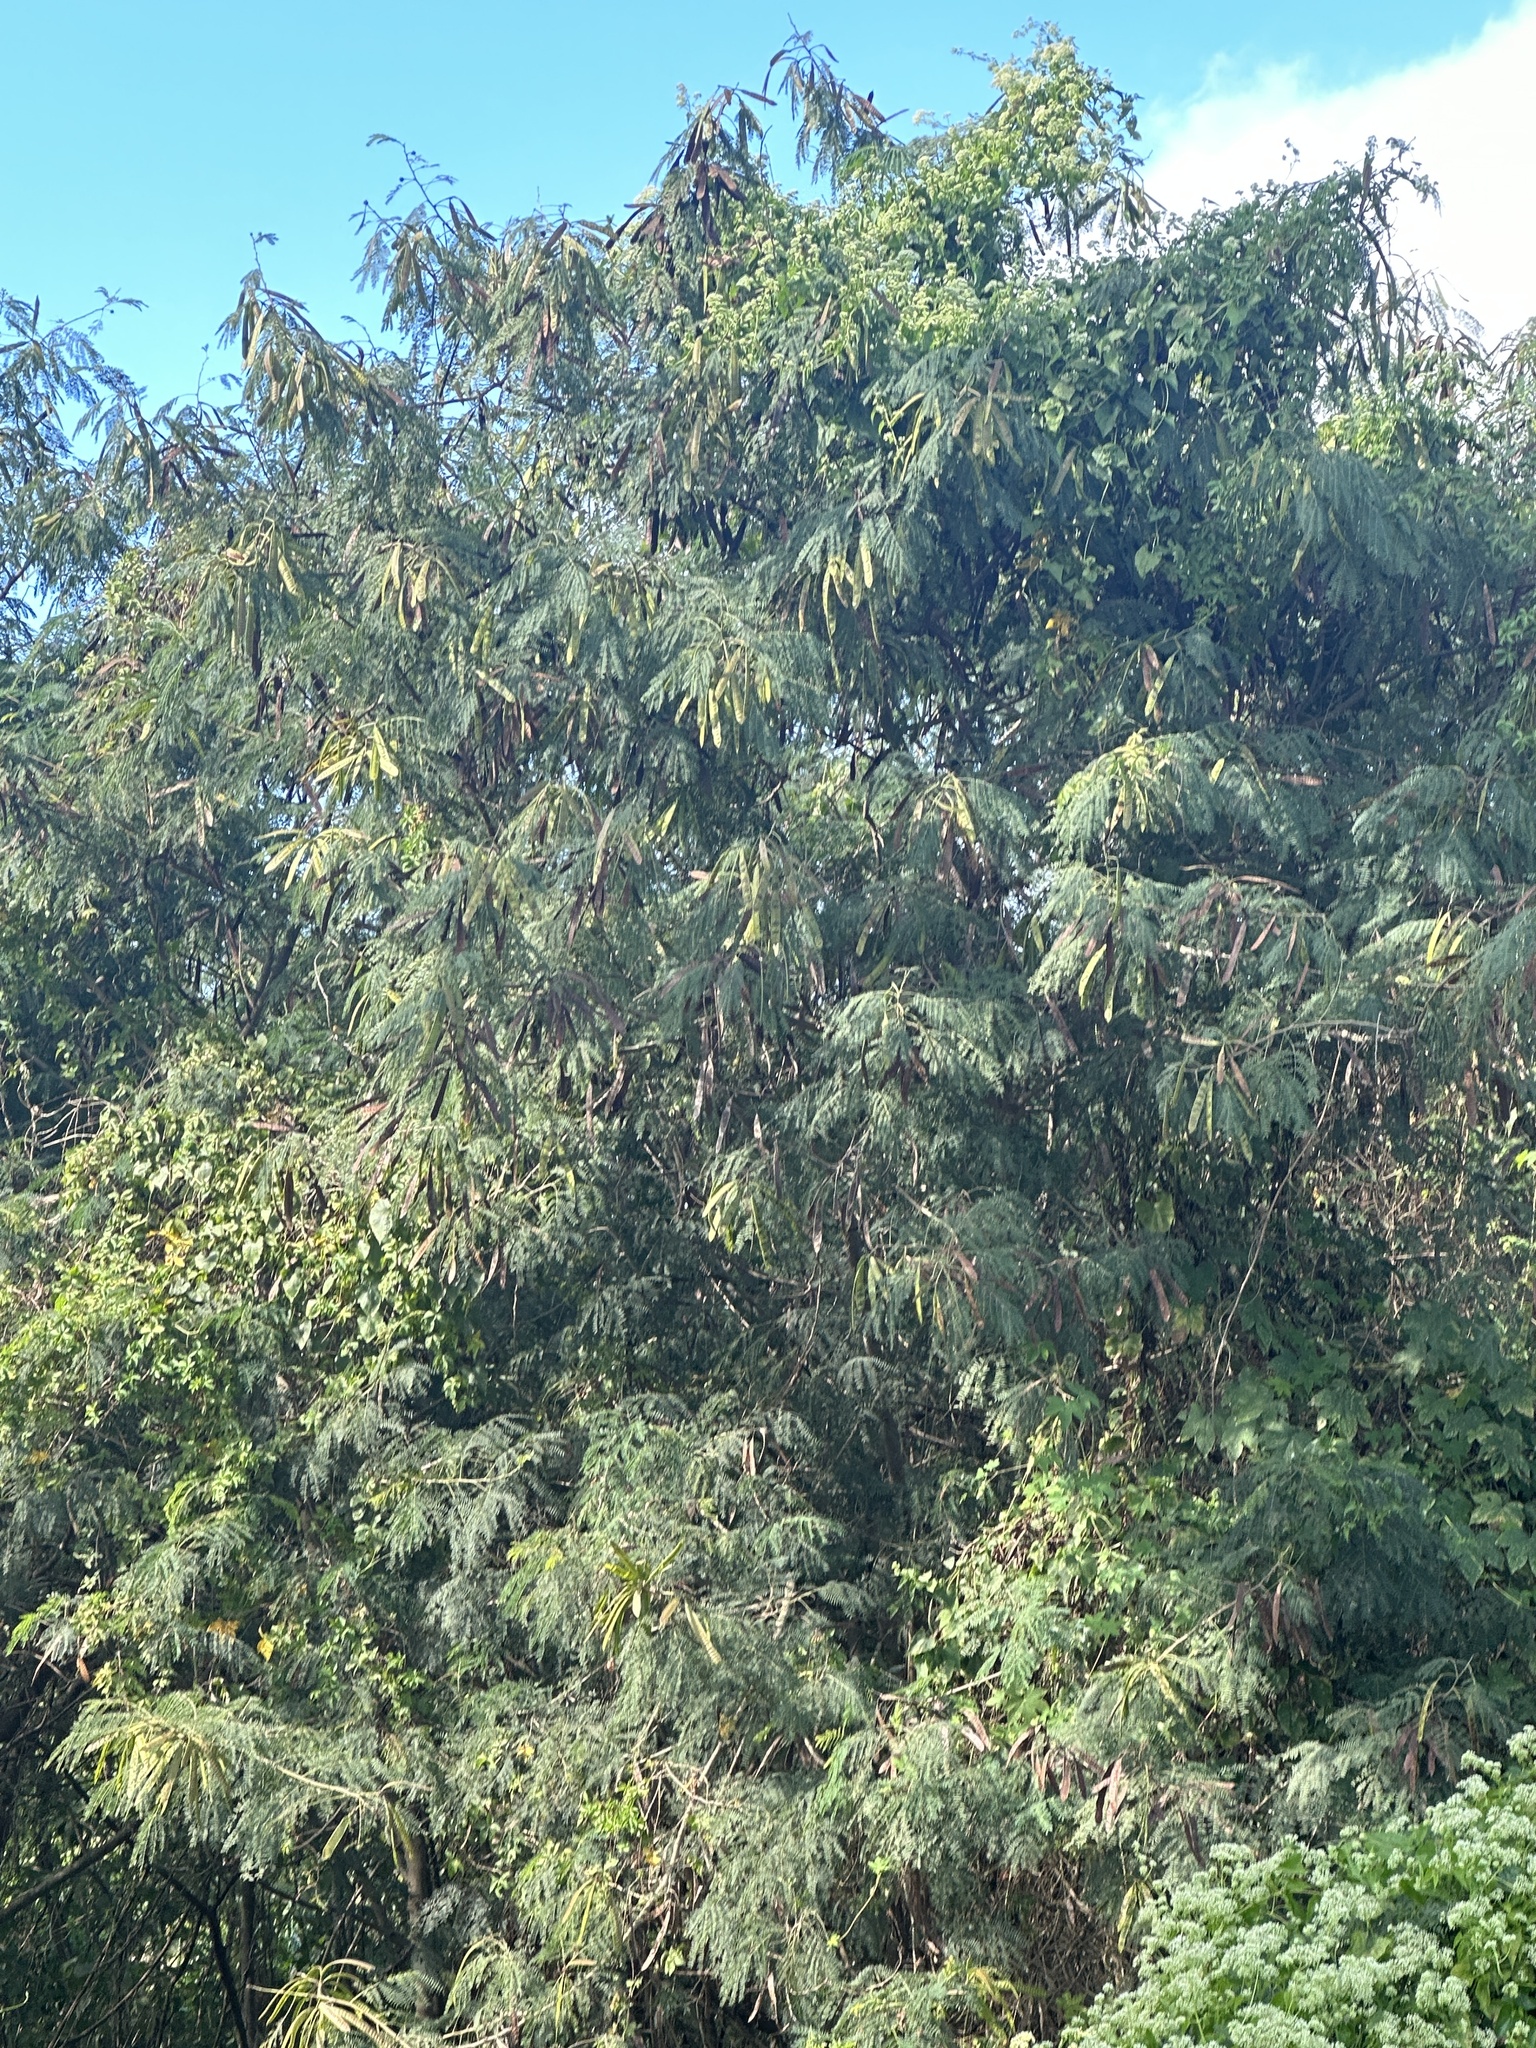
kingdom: Plantae
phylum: Tracheophyta
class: Magnoliopsida
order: Fabales
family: Fabaceae
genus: Leucaena
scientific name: Leucaena leucocephala
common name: White leadtree
